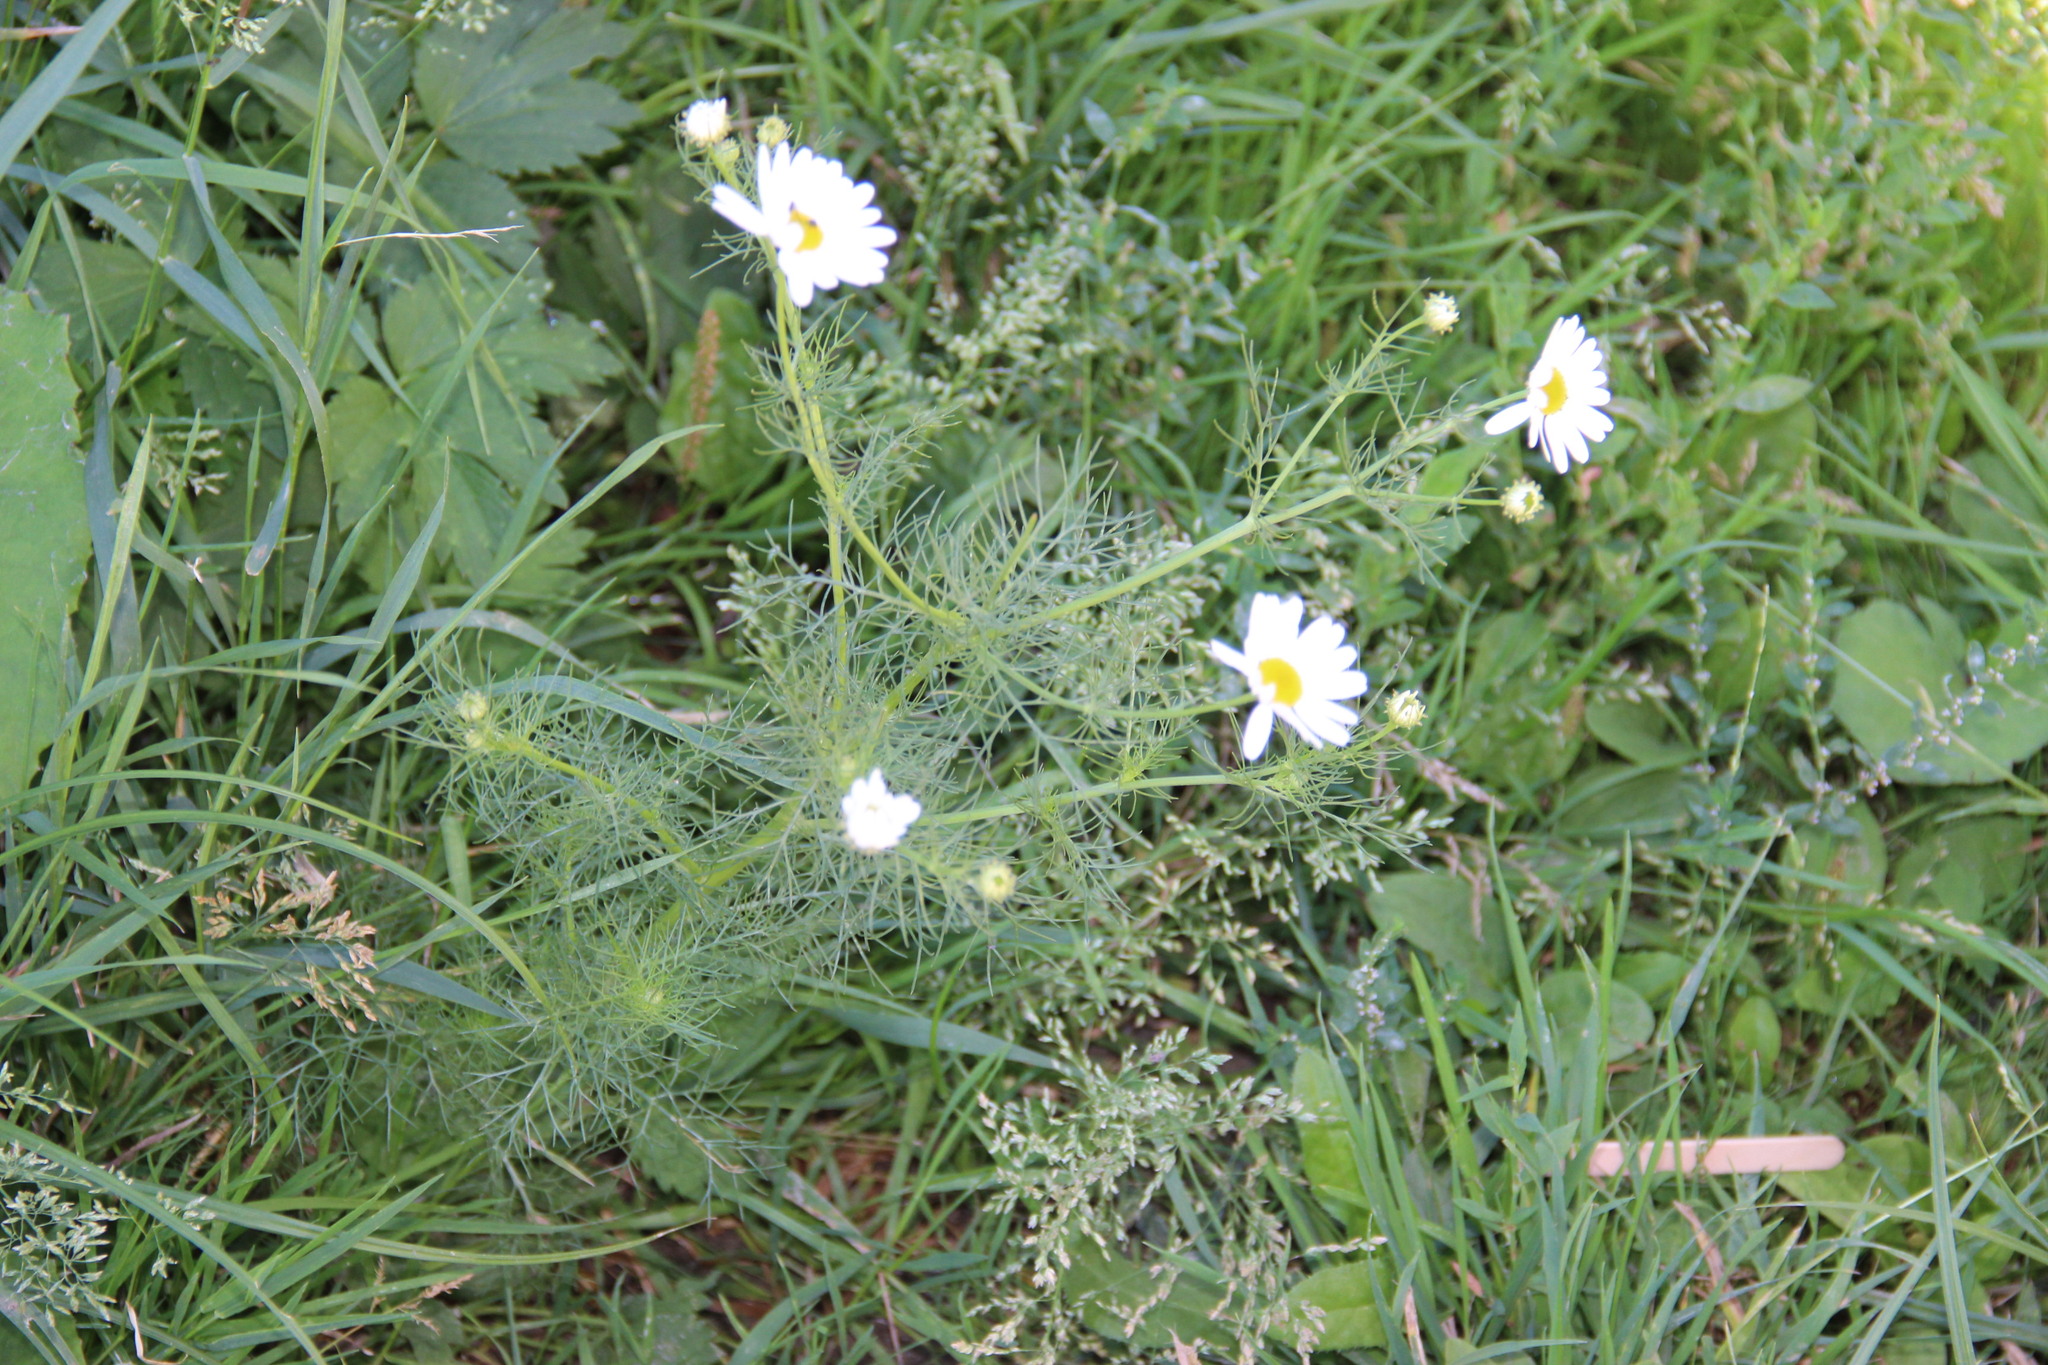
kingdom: Plantae
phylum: Tracheophyta
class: Magnoliopsida
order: Asterales
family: Asteraceae
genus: Tripleurospermum
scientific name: Tripleurospermum inodorum
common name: Scentless mayweed
